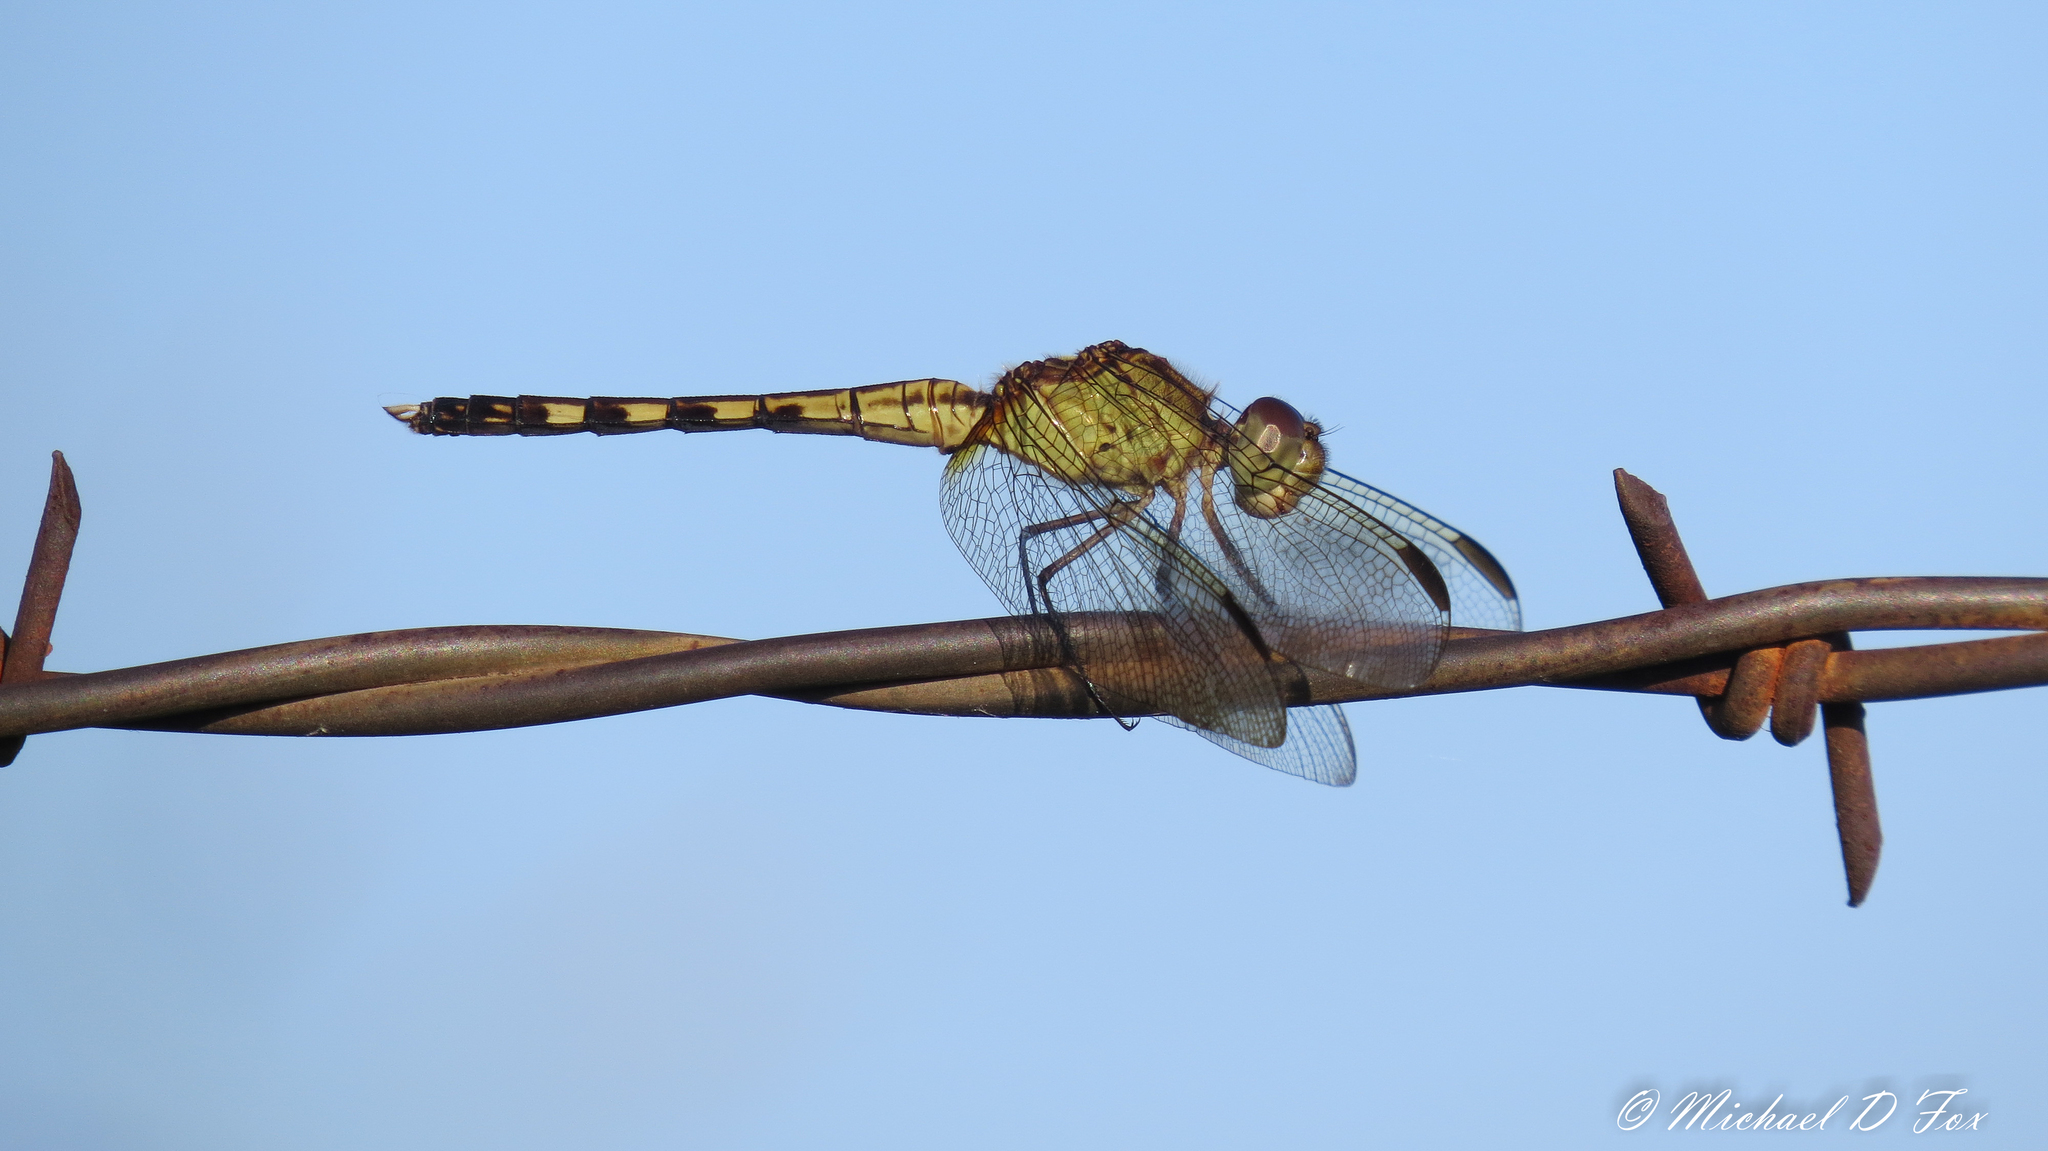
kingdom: Animalia
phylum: Arthropoda
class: Insecta
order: Odonata
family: Libellulidae
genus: Erythrodiplax
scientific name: Erythrodiplax umbrata
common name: Band-winged dragonlet
